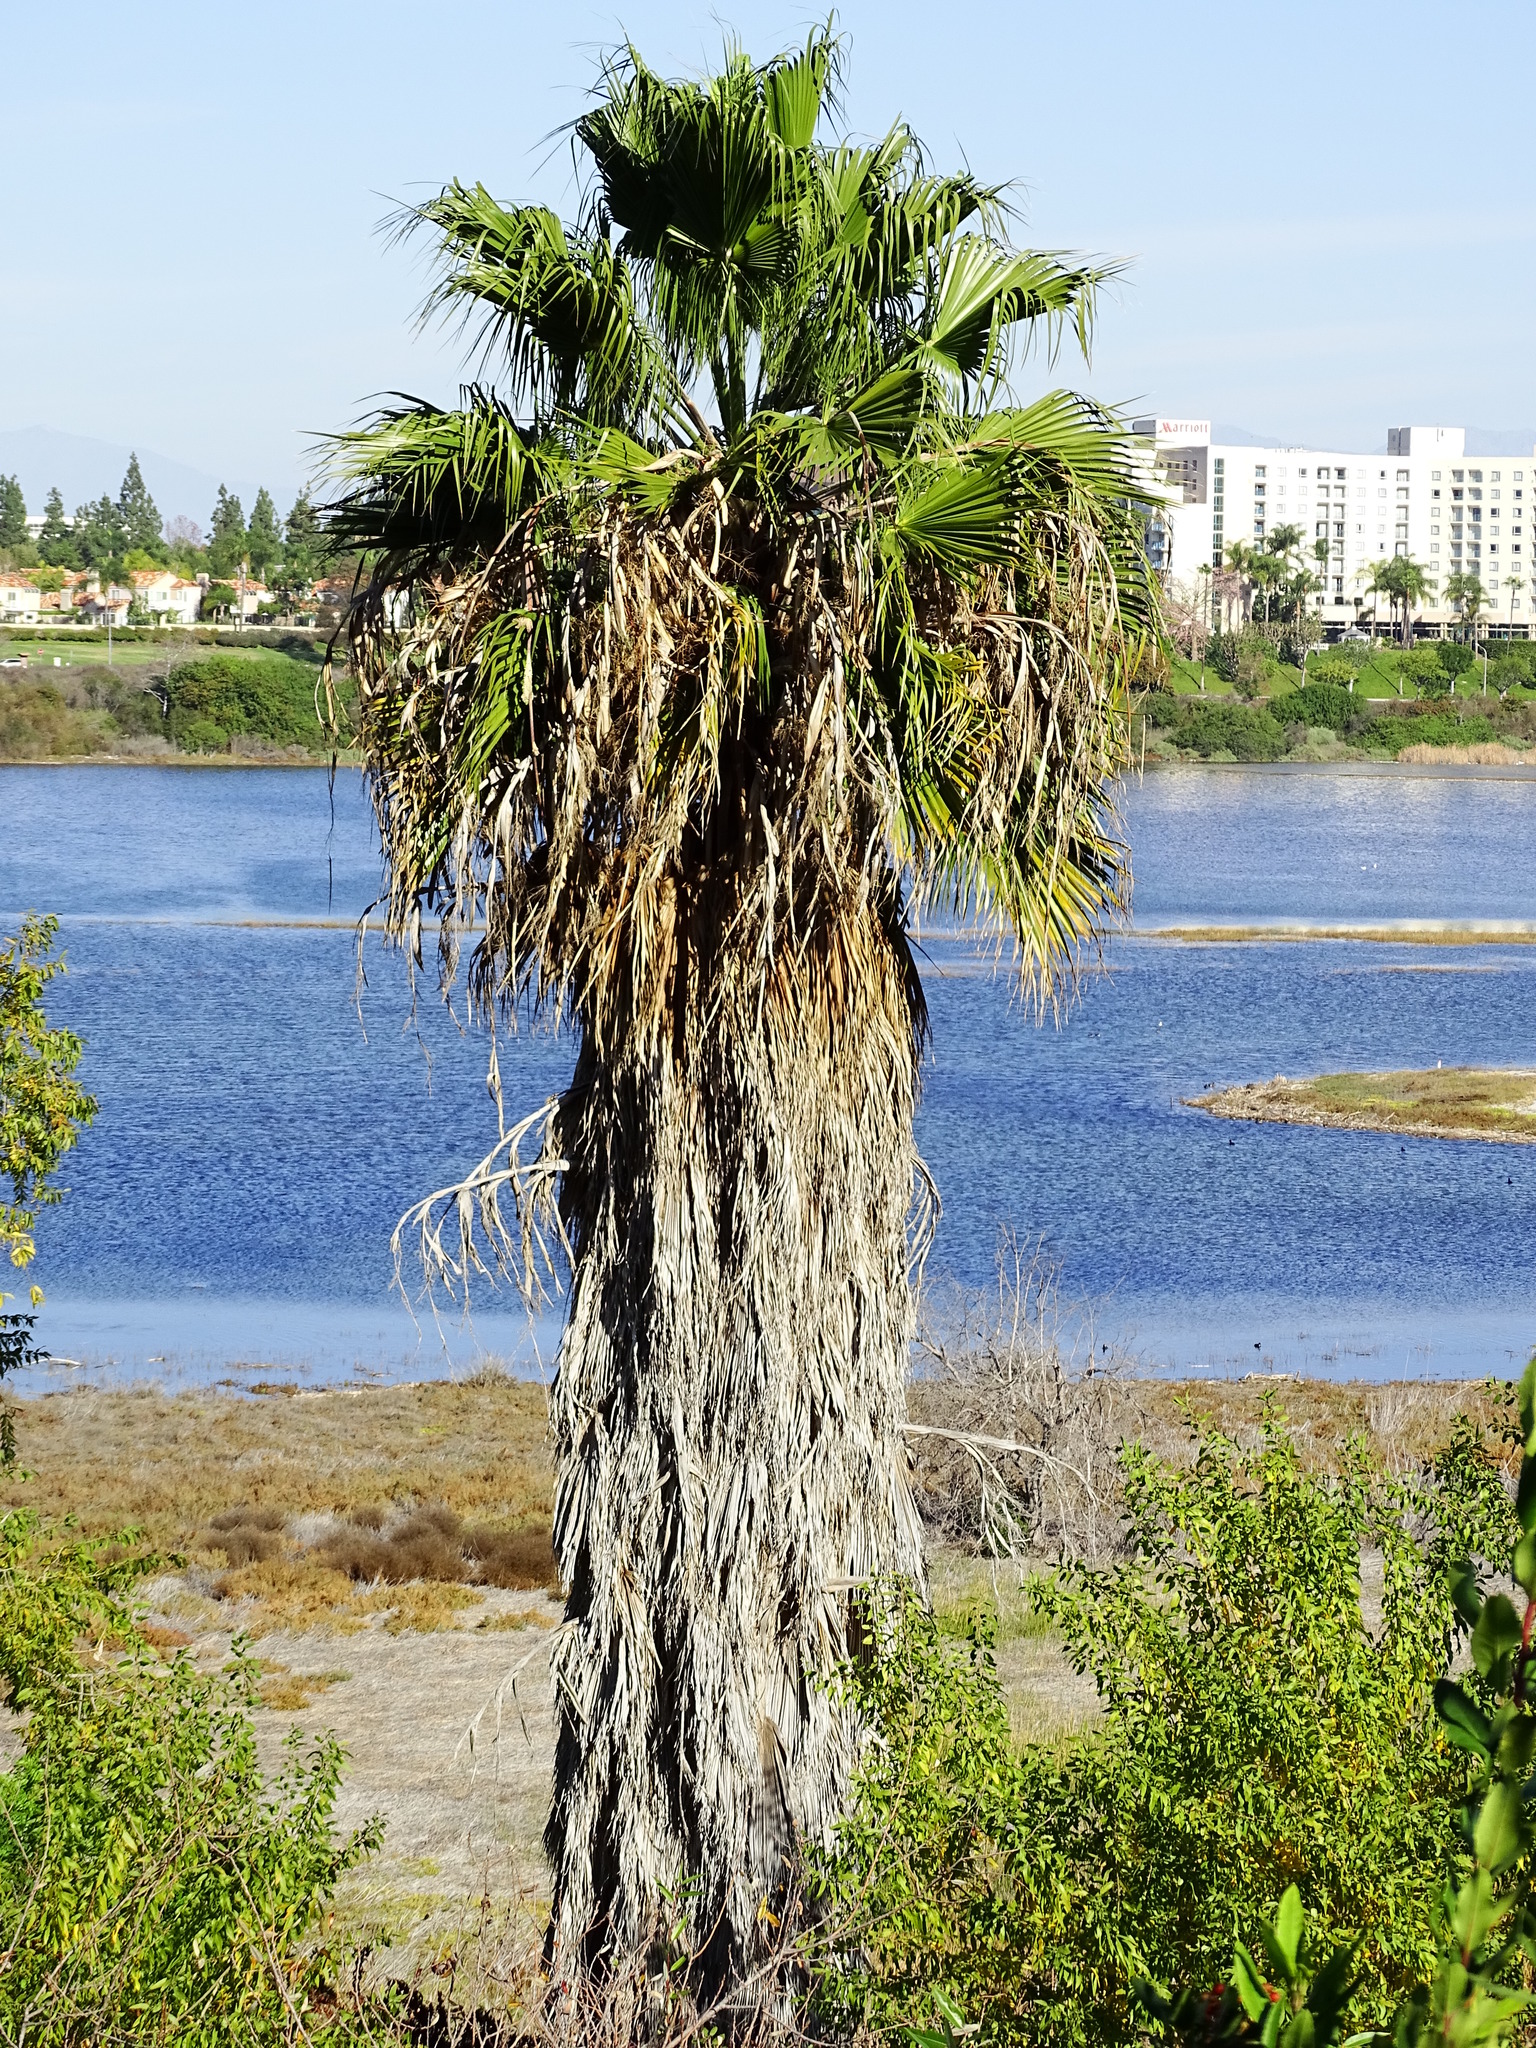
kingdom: Plantae
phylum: Tracheophyta
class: Liliopsida
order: Arecales
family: Arecaceae
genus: Washingtonia
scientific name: Washingtonia robusta
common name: Mexican fan palm
